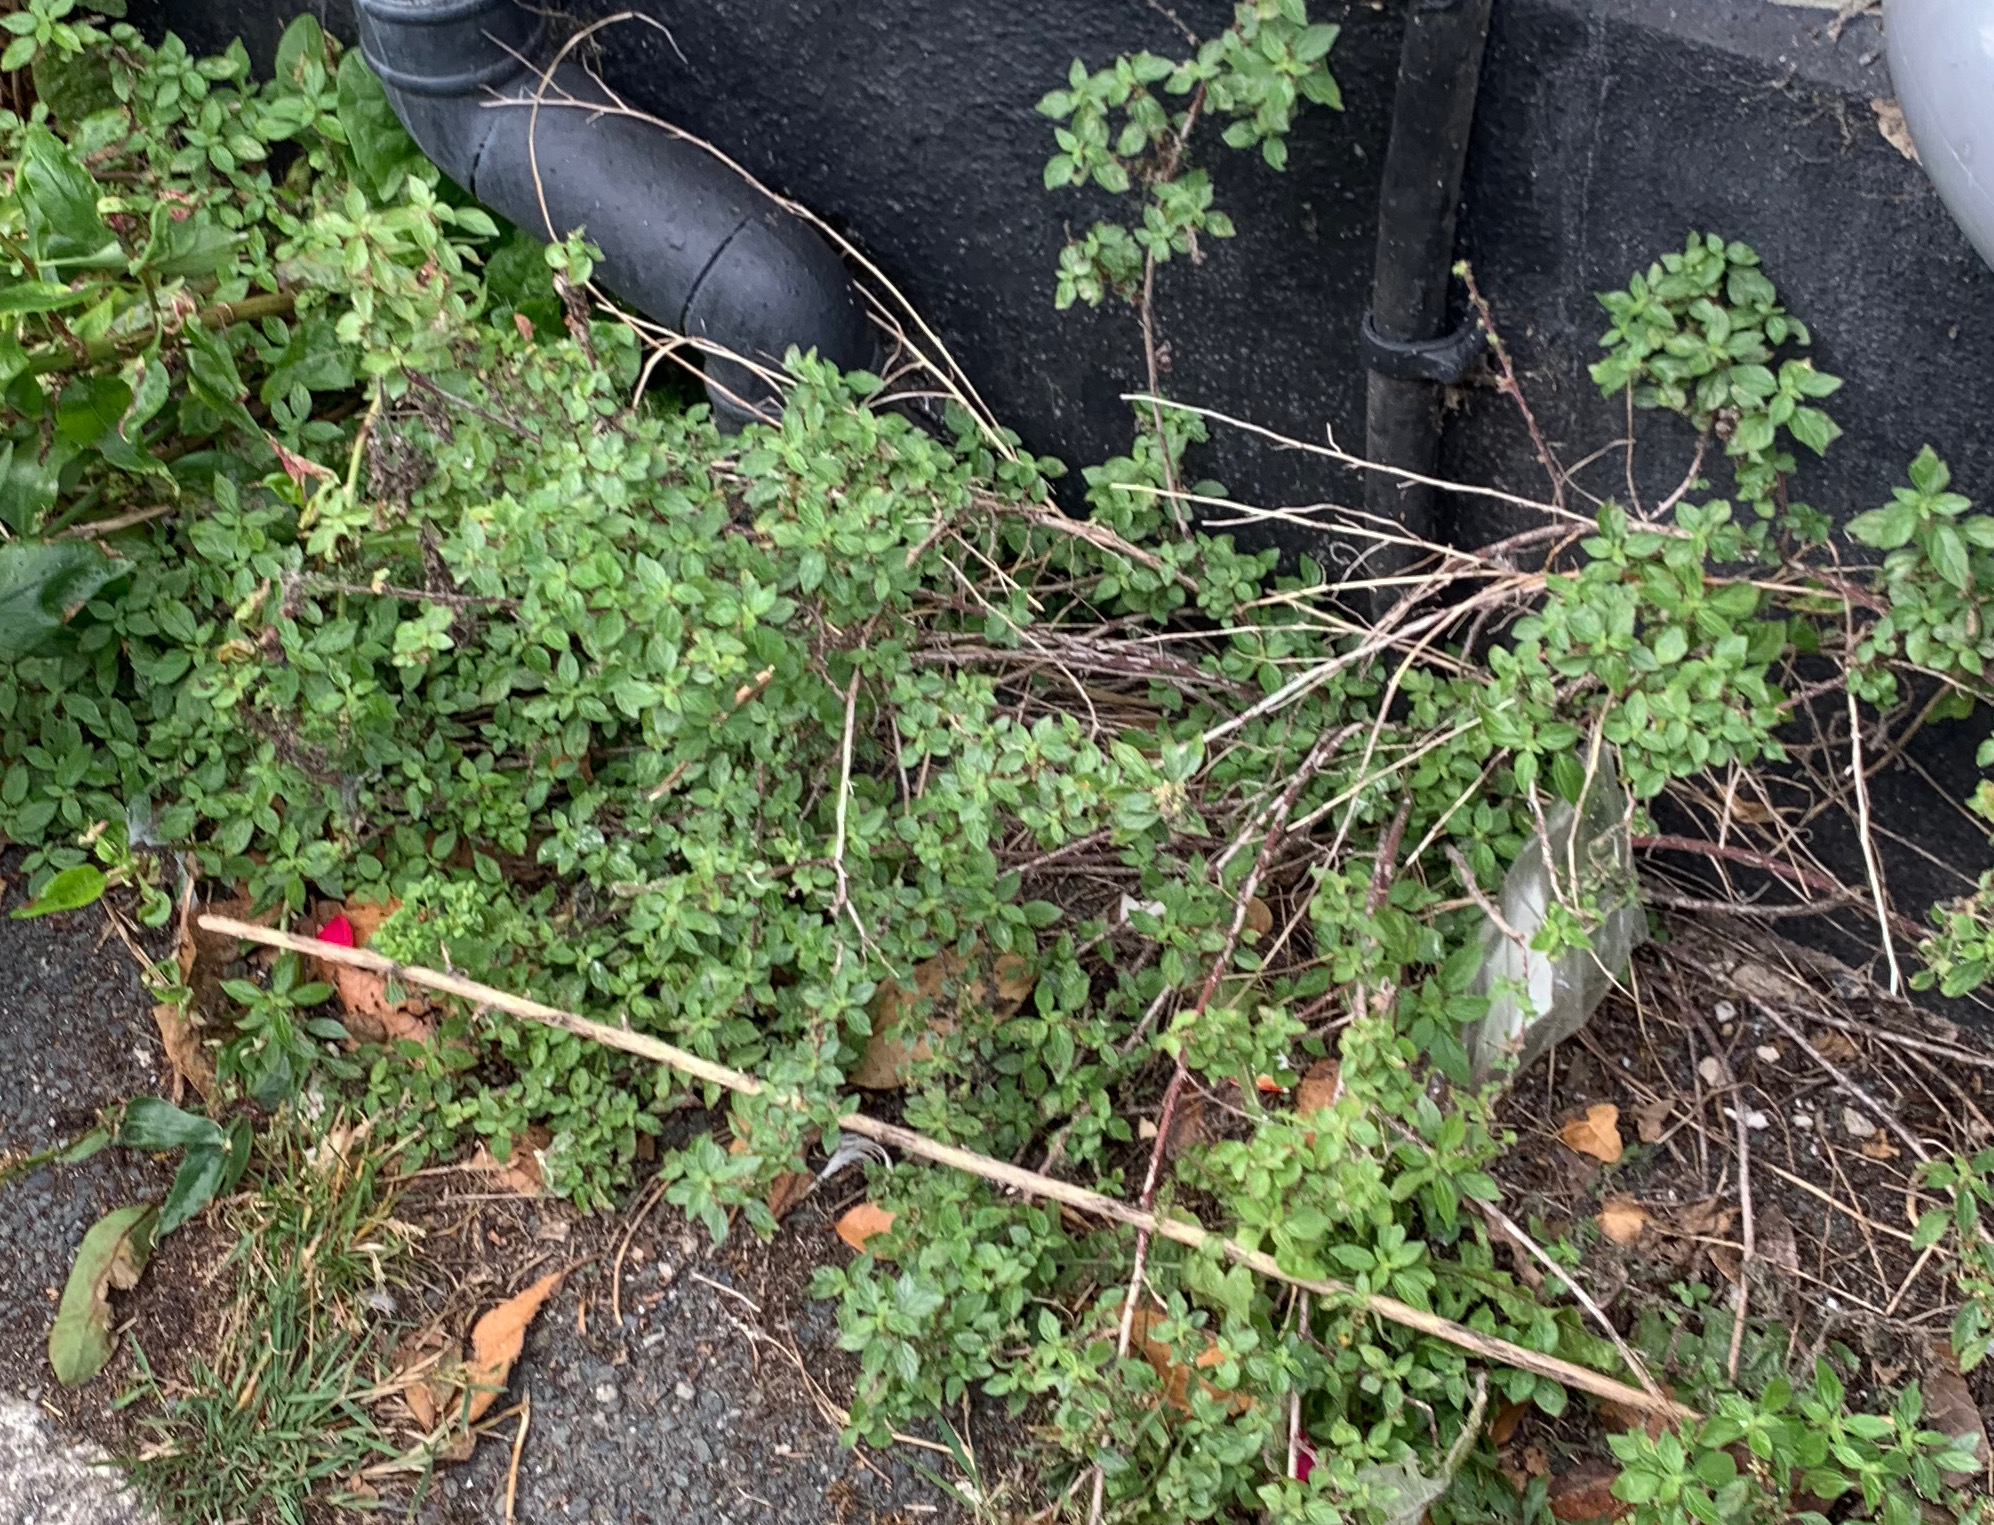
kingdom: Plantae
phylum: Tracheophyta
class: Magnoliopsida
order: Rosales
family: Urticaceae
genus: Parietaria
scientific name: Parietaria judaica
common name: Pellitory-of-the-wall
